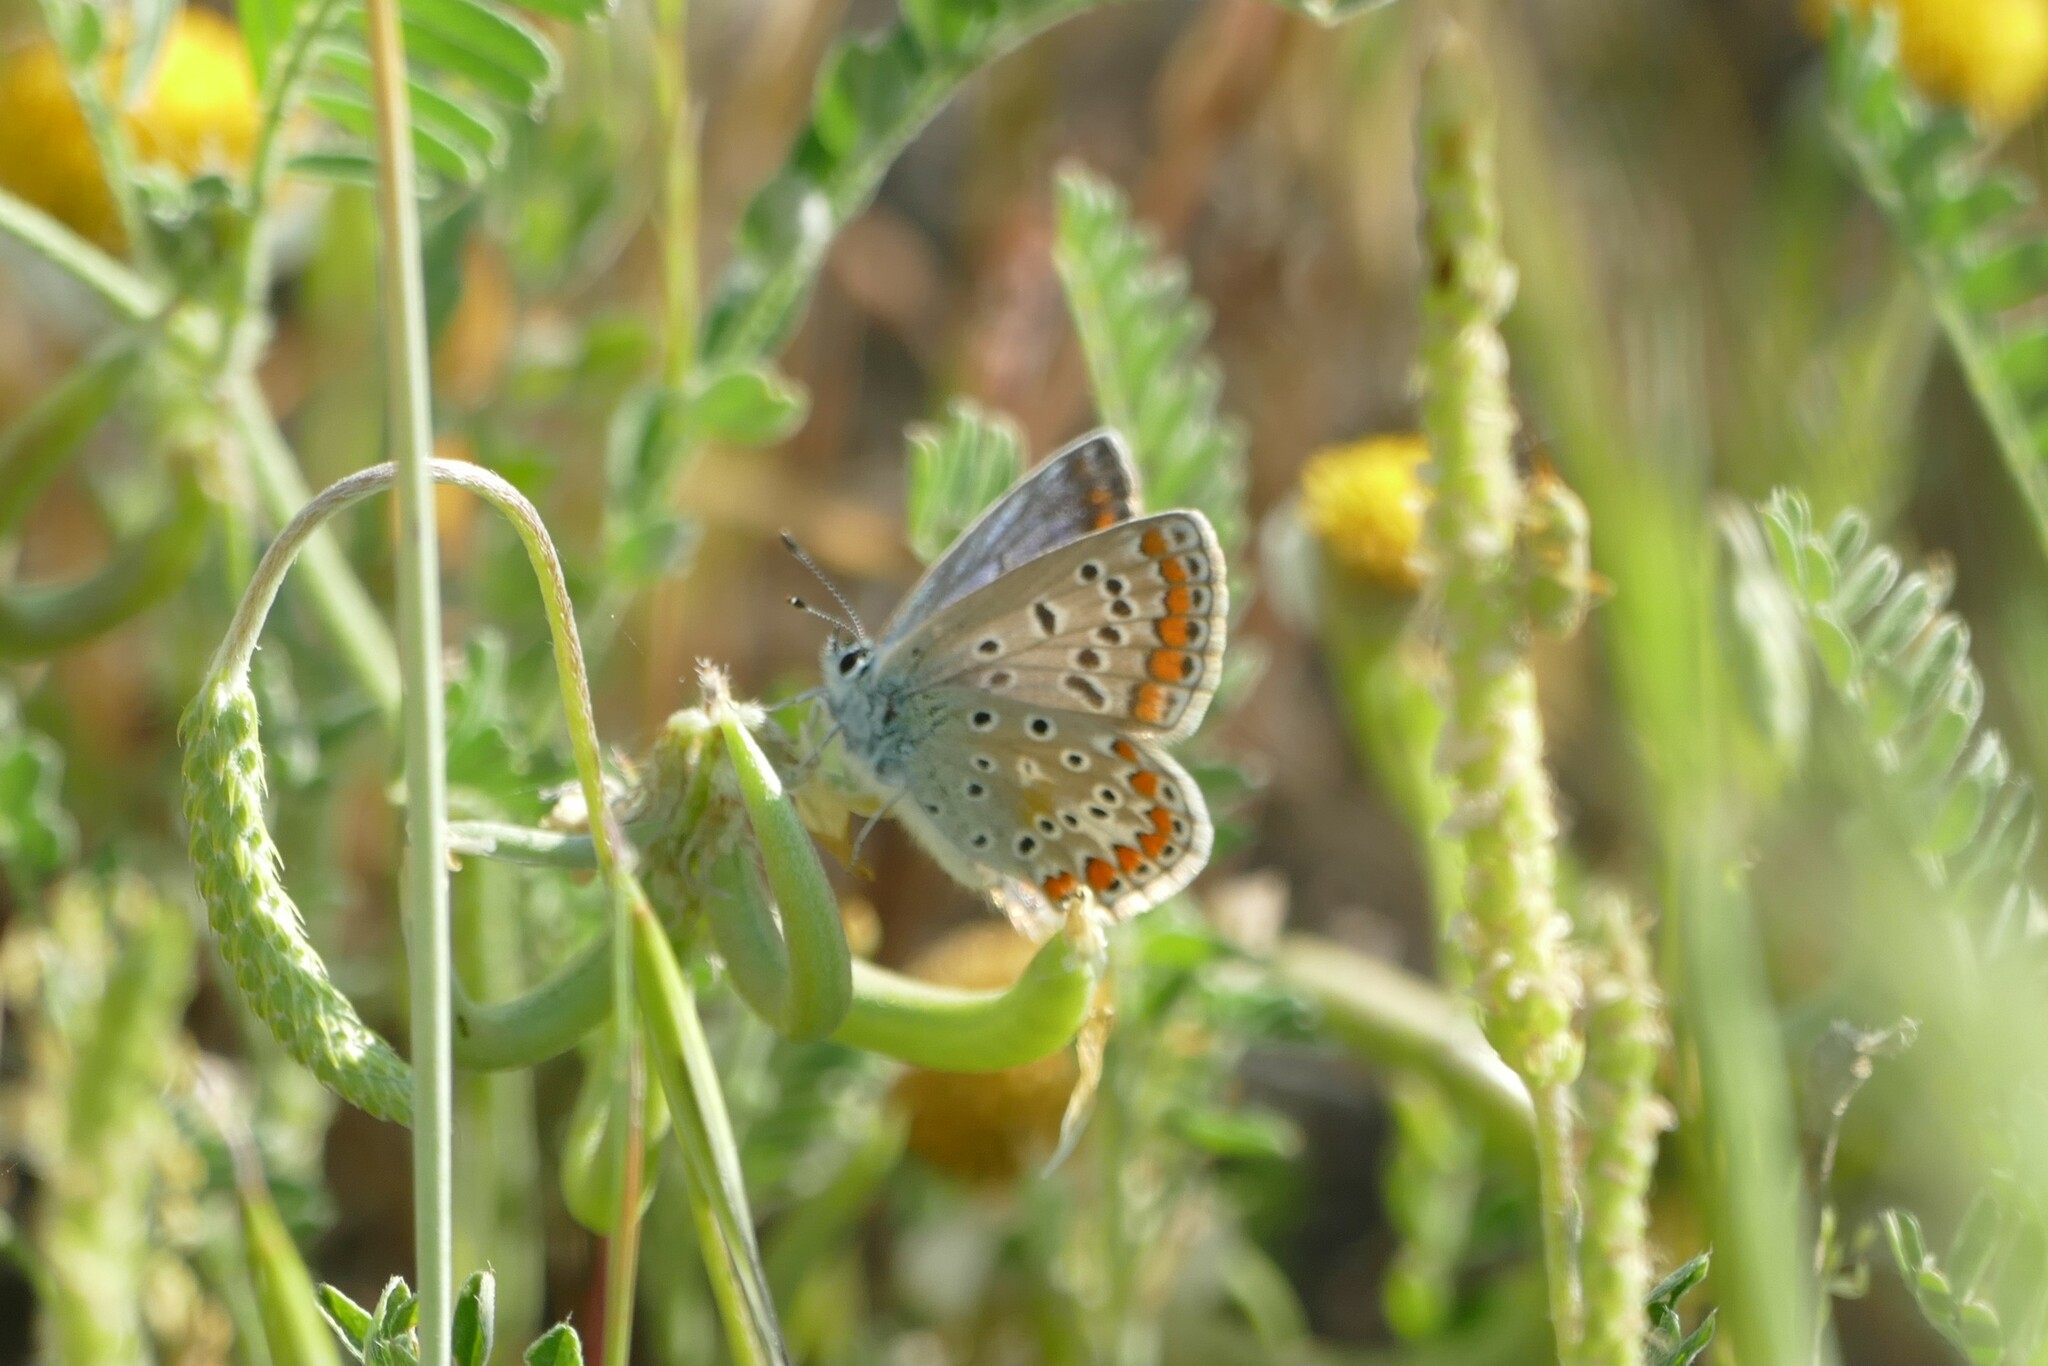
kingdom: Animalia
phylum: Arthropoda
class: Insecta
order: Lepidoptera
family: Lycaenidae
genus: Polyommatus
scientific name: Polyommatus icarus
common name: Common blue
